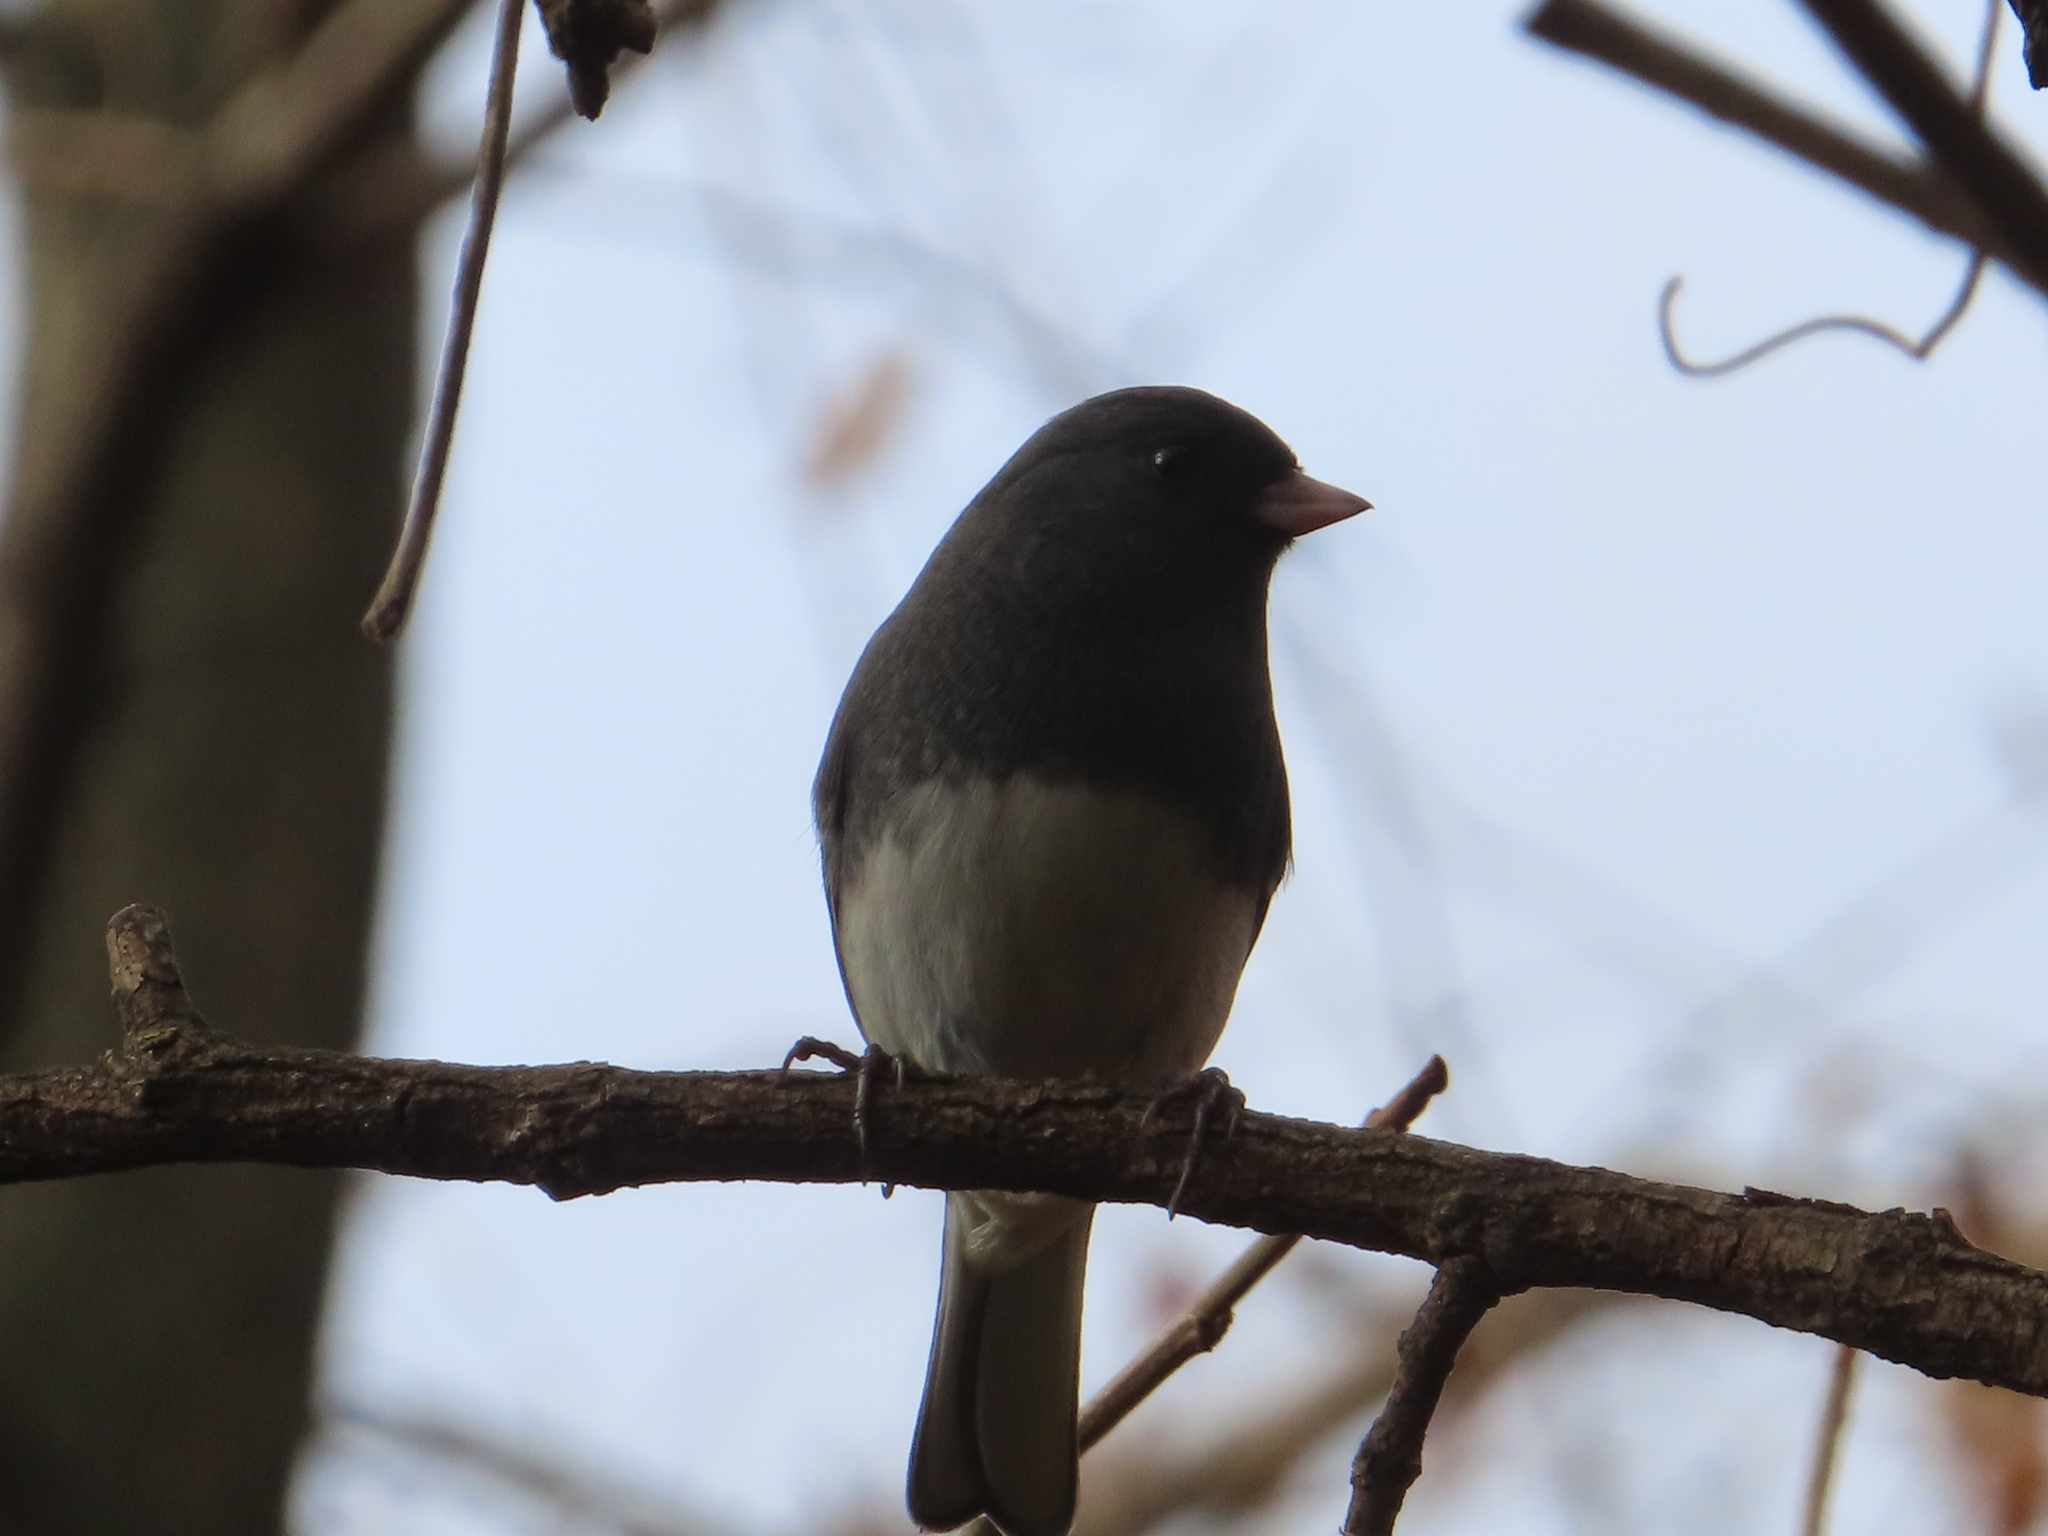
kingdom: Animalia
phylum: Chordata
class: Aves
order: Passeriformes
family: Passerellidae
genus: Junco
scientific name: Junco hyemalis
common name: Dark-eyed junco
